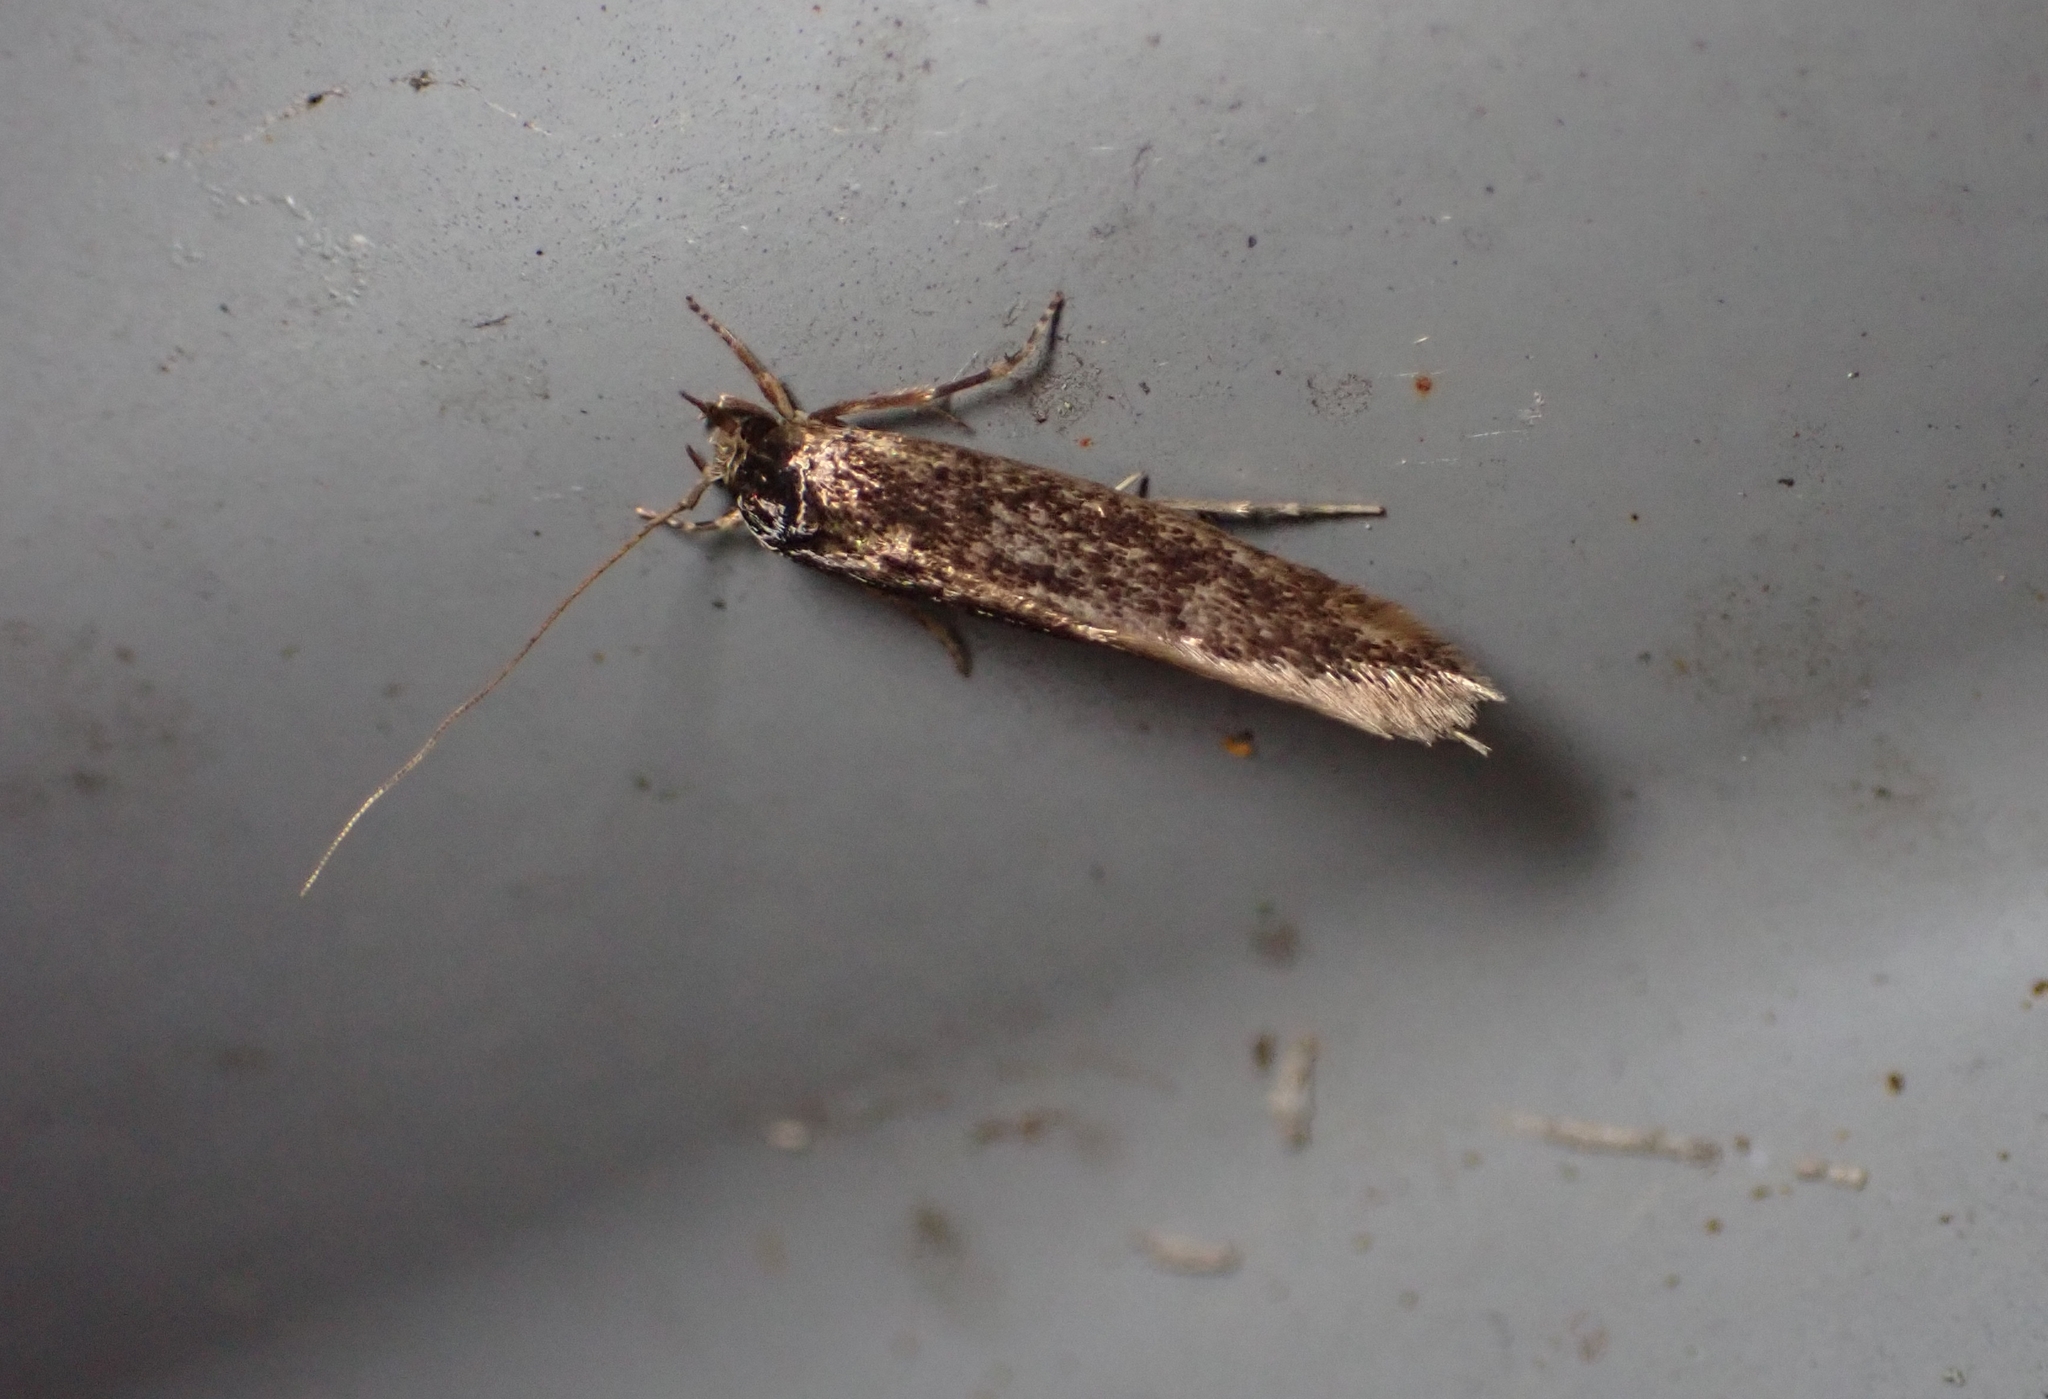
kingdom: Animalia
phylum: Arthropoda
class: Insecta
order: Lepidoptera
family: Tineidae
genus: Opogona
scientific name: Opogona omoscopa
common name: Moth
